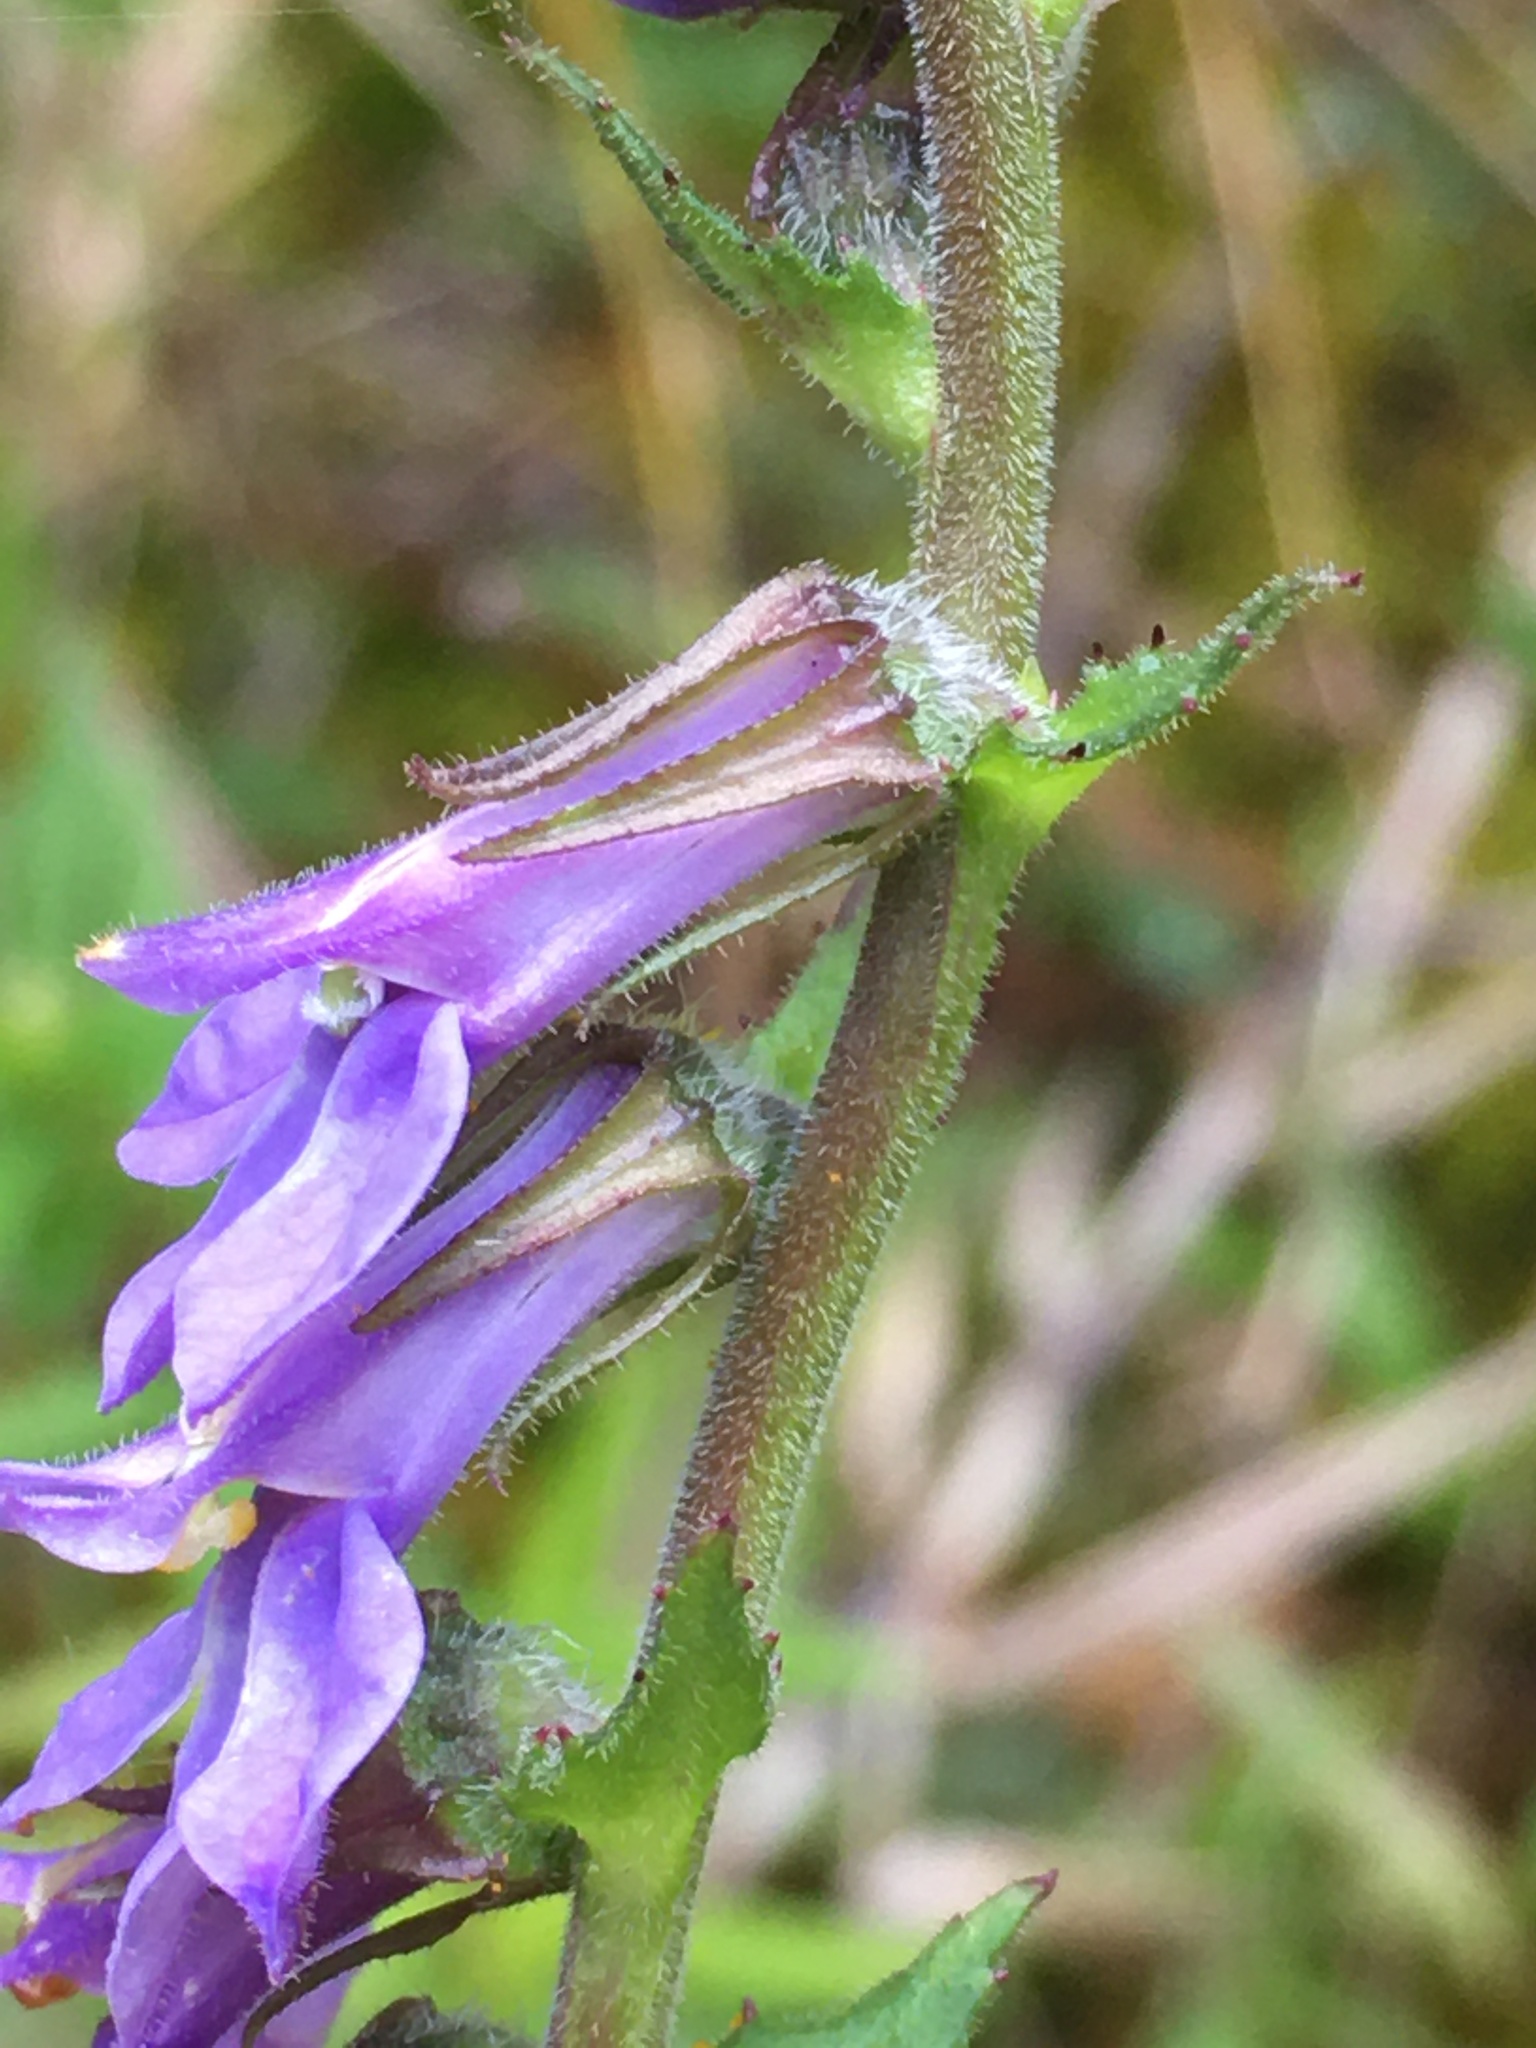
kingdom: Plantae
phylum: Tracheophyta
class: Magnoliopsida
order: Asterales
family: Campanulaceae
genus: Lobelia
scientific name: Lobelia puberula
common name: Purple dewdrop
